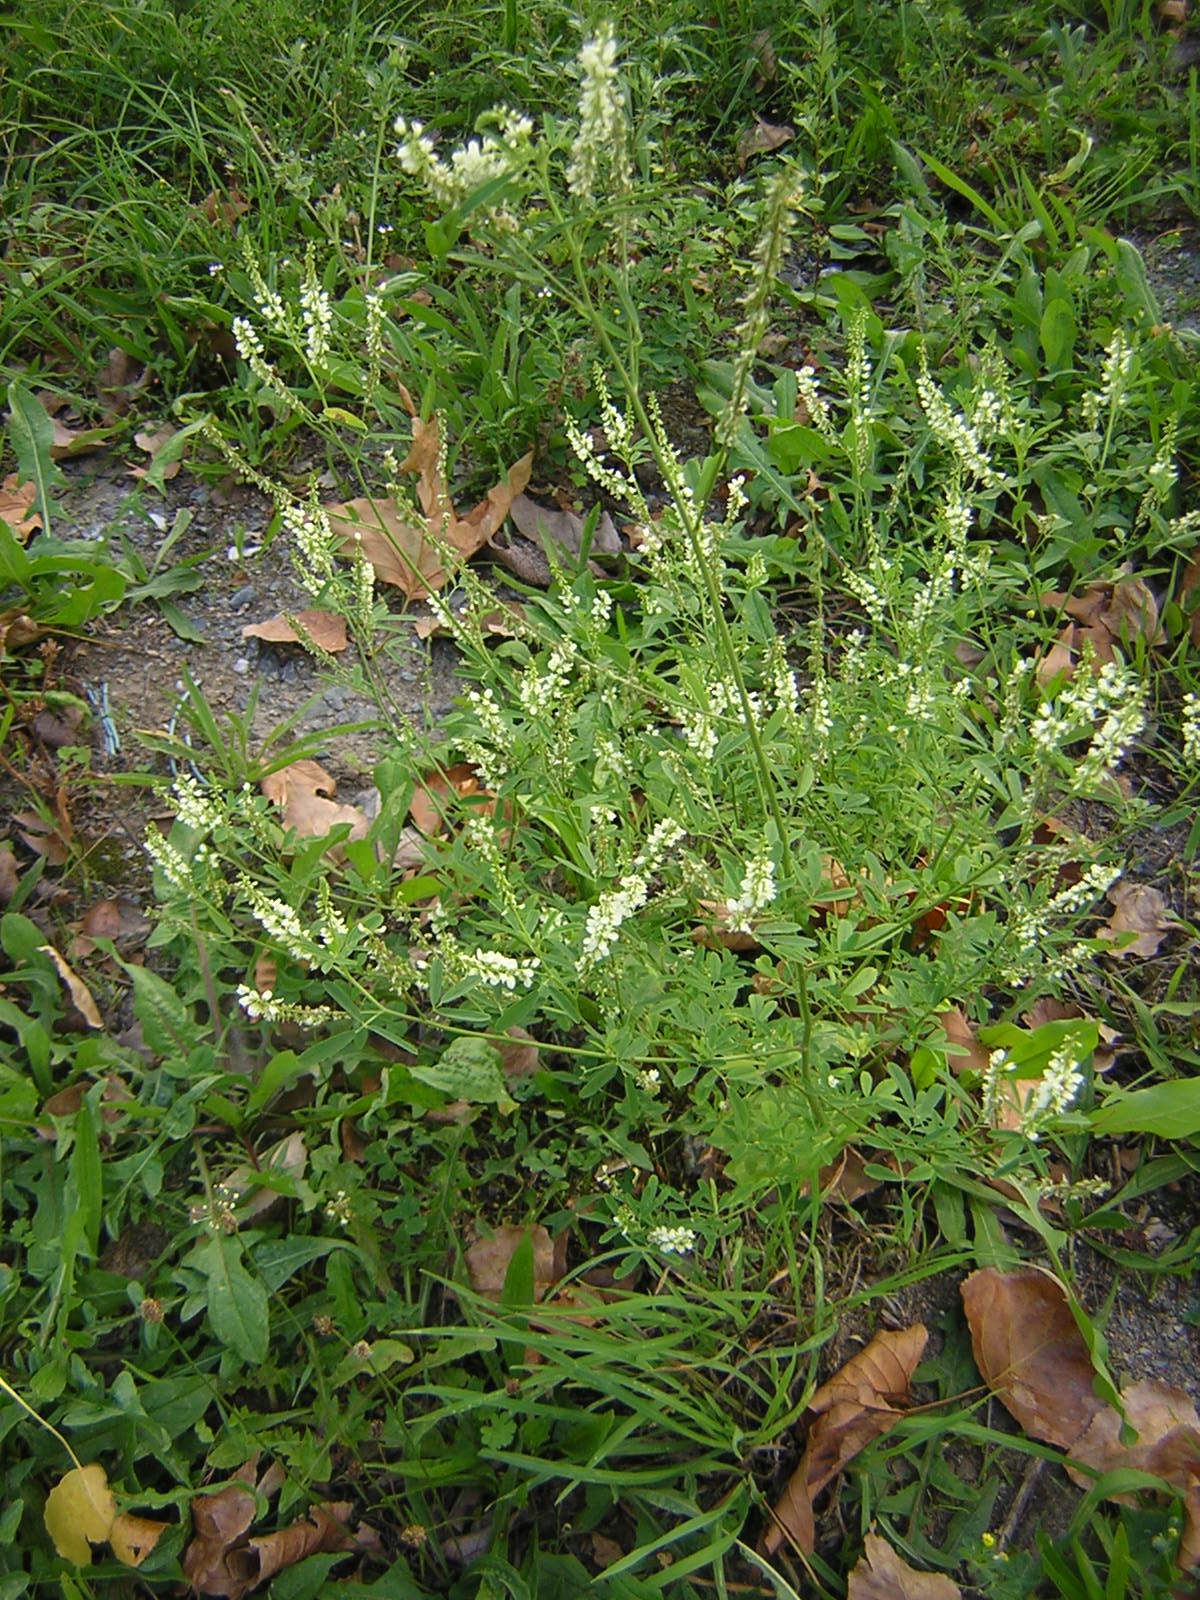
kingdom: Plantae
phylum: Tracheophyta
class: Magnoliopsida
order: Fabales
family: Fabaceae
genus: Melilotus
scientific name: Melilotus albus
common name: White melilot
